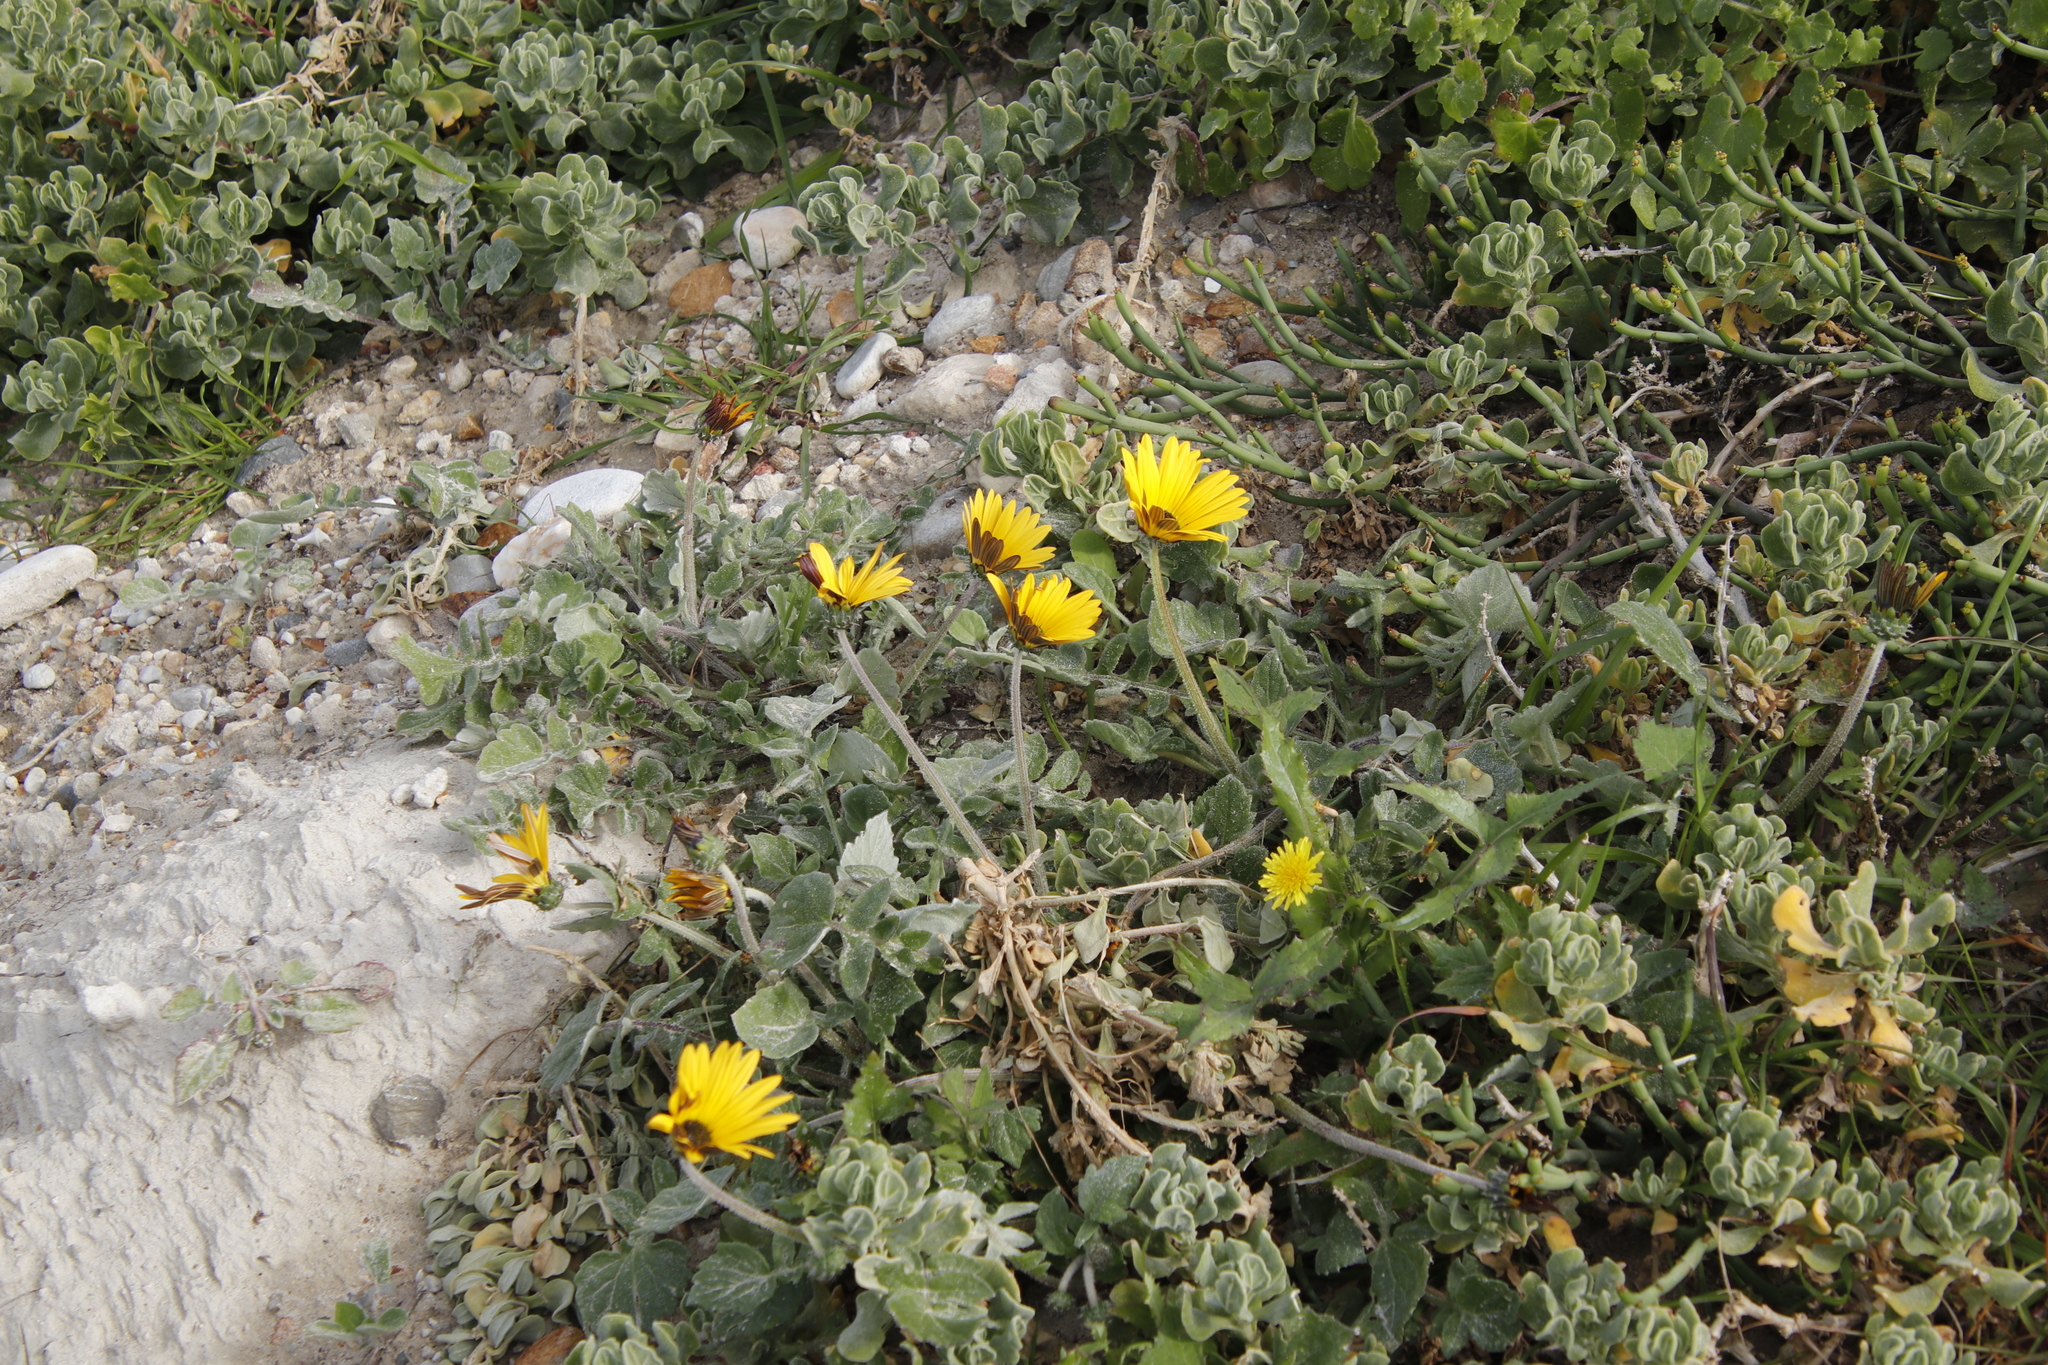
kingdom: Plantae
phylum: Tracheophyta
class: Magnoliopsida
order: Asterales
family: Asteraceae
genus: Arctotheca
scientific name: Arctotheca calendula
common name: Capeweed
